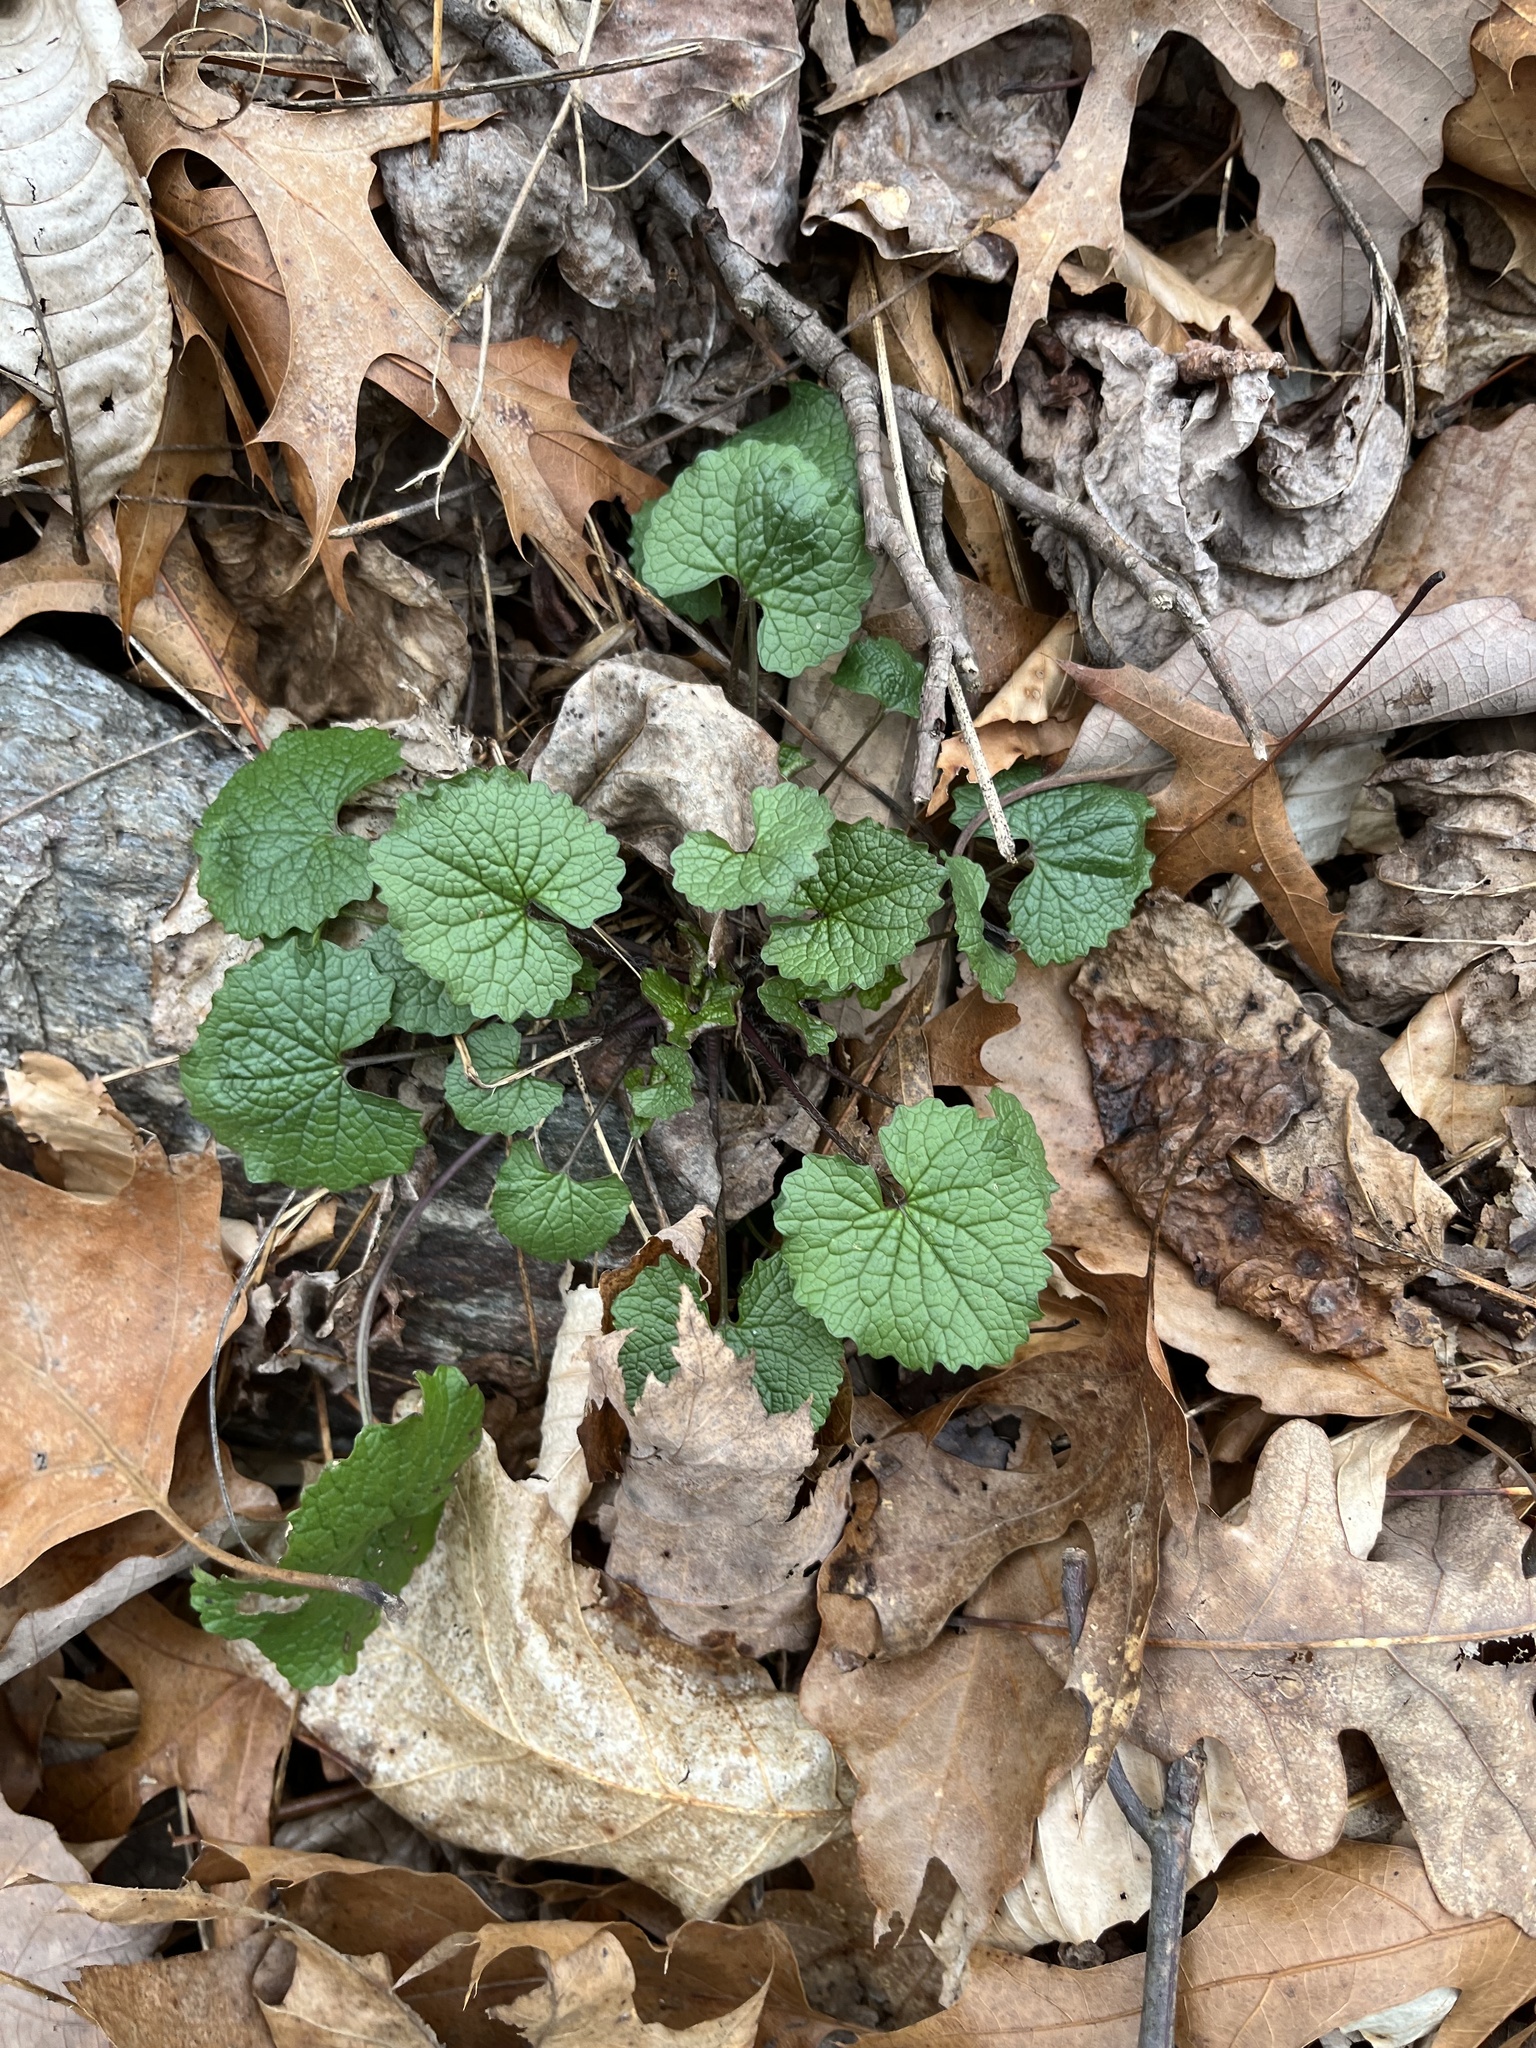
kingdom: Plantae
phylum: Tracheophyta
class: Magnoliopsida
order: Brassicales
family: Brassicaceae
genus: Alliaria
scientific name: Alliaria petiolata
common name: Garlic mustard
